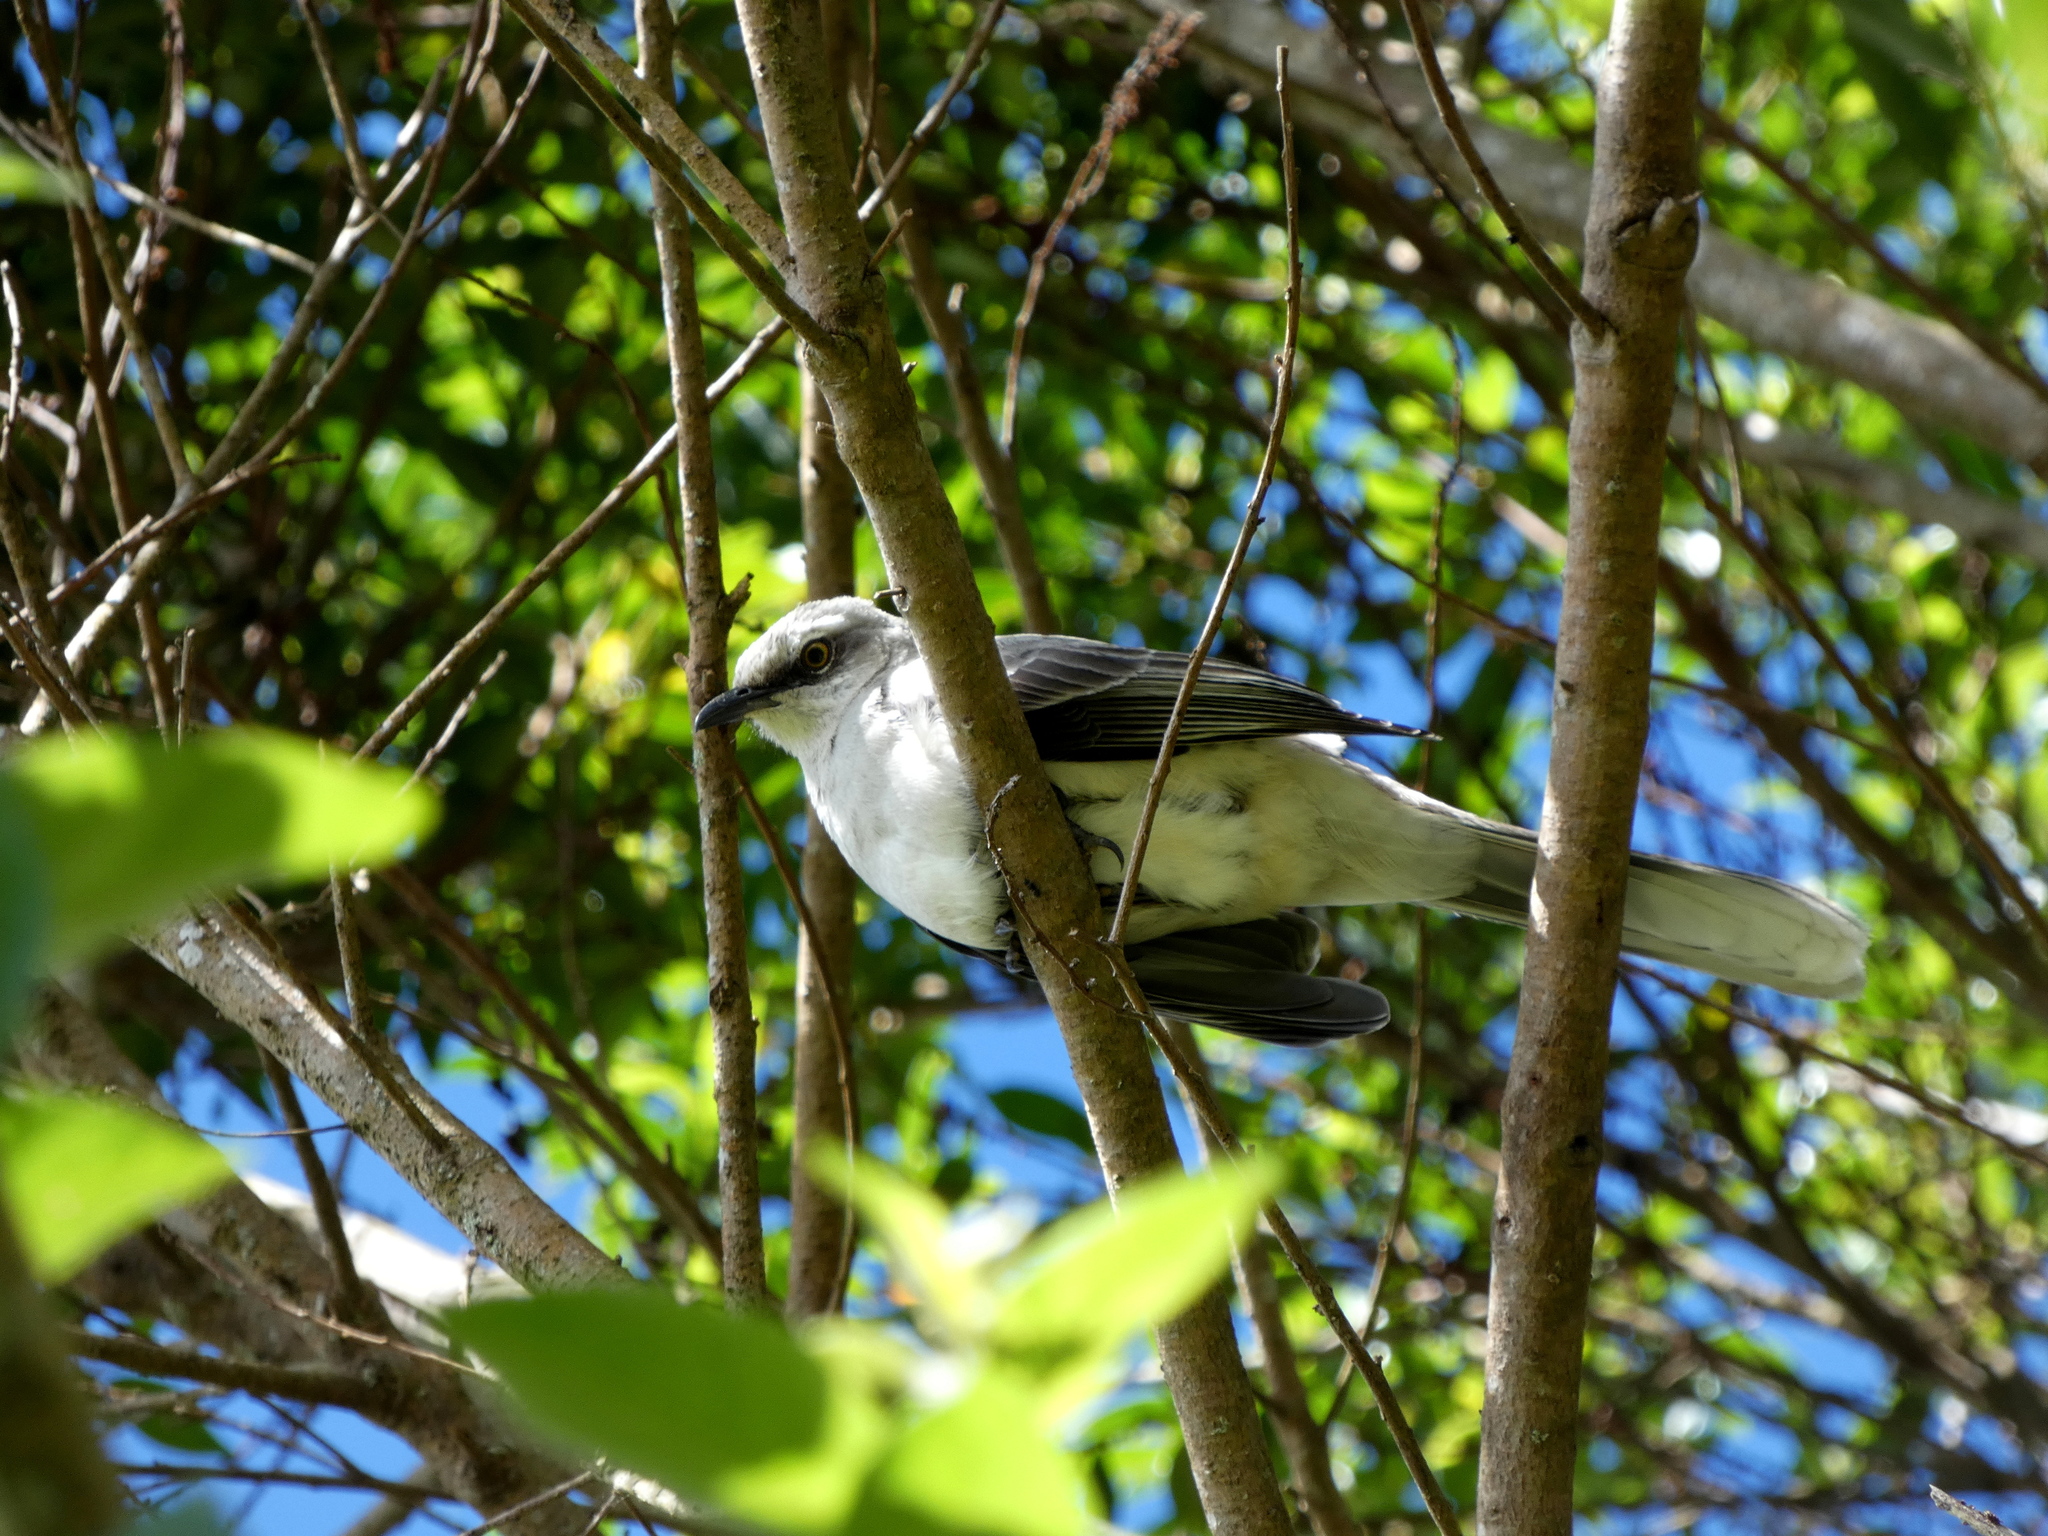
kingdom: Animalia
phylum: Chordata
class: Aves
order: Passeriformes
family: Mimidae
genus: Mimus
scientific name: Mimus gilvus
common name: Tropical mockingbird
